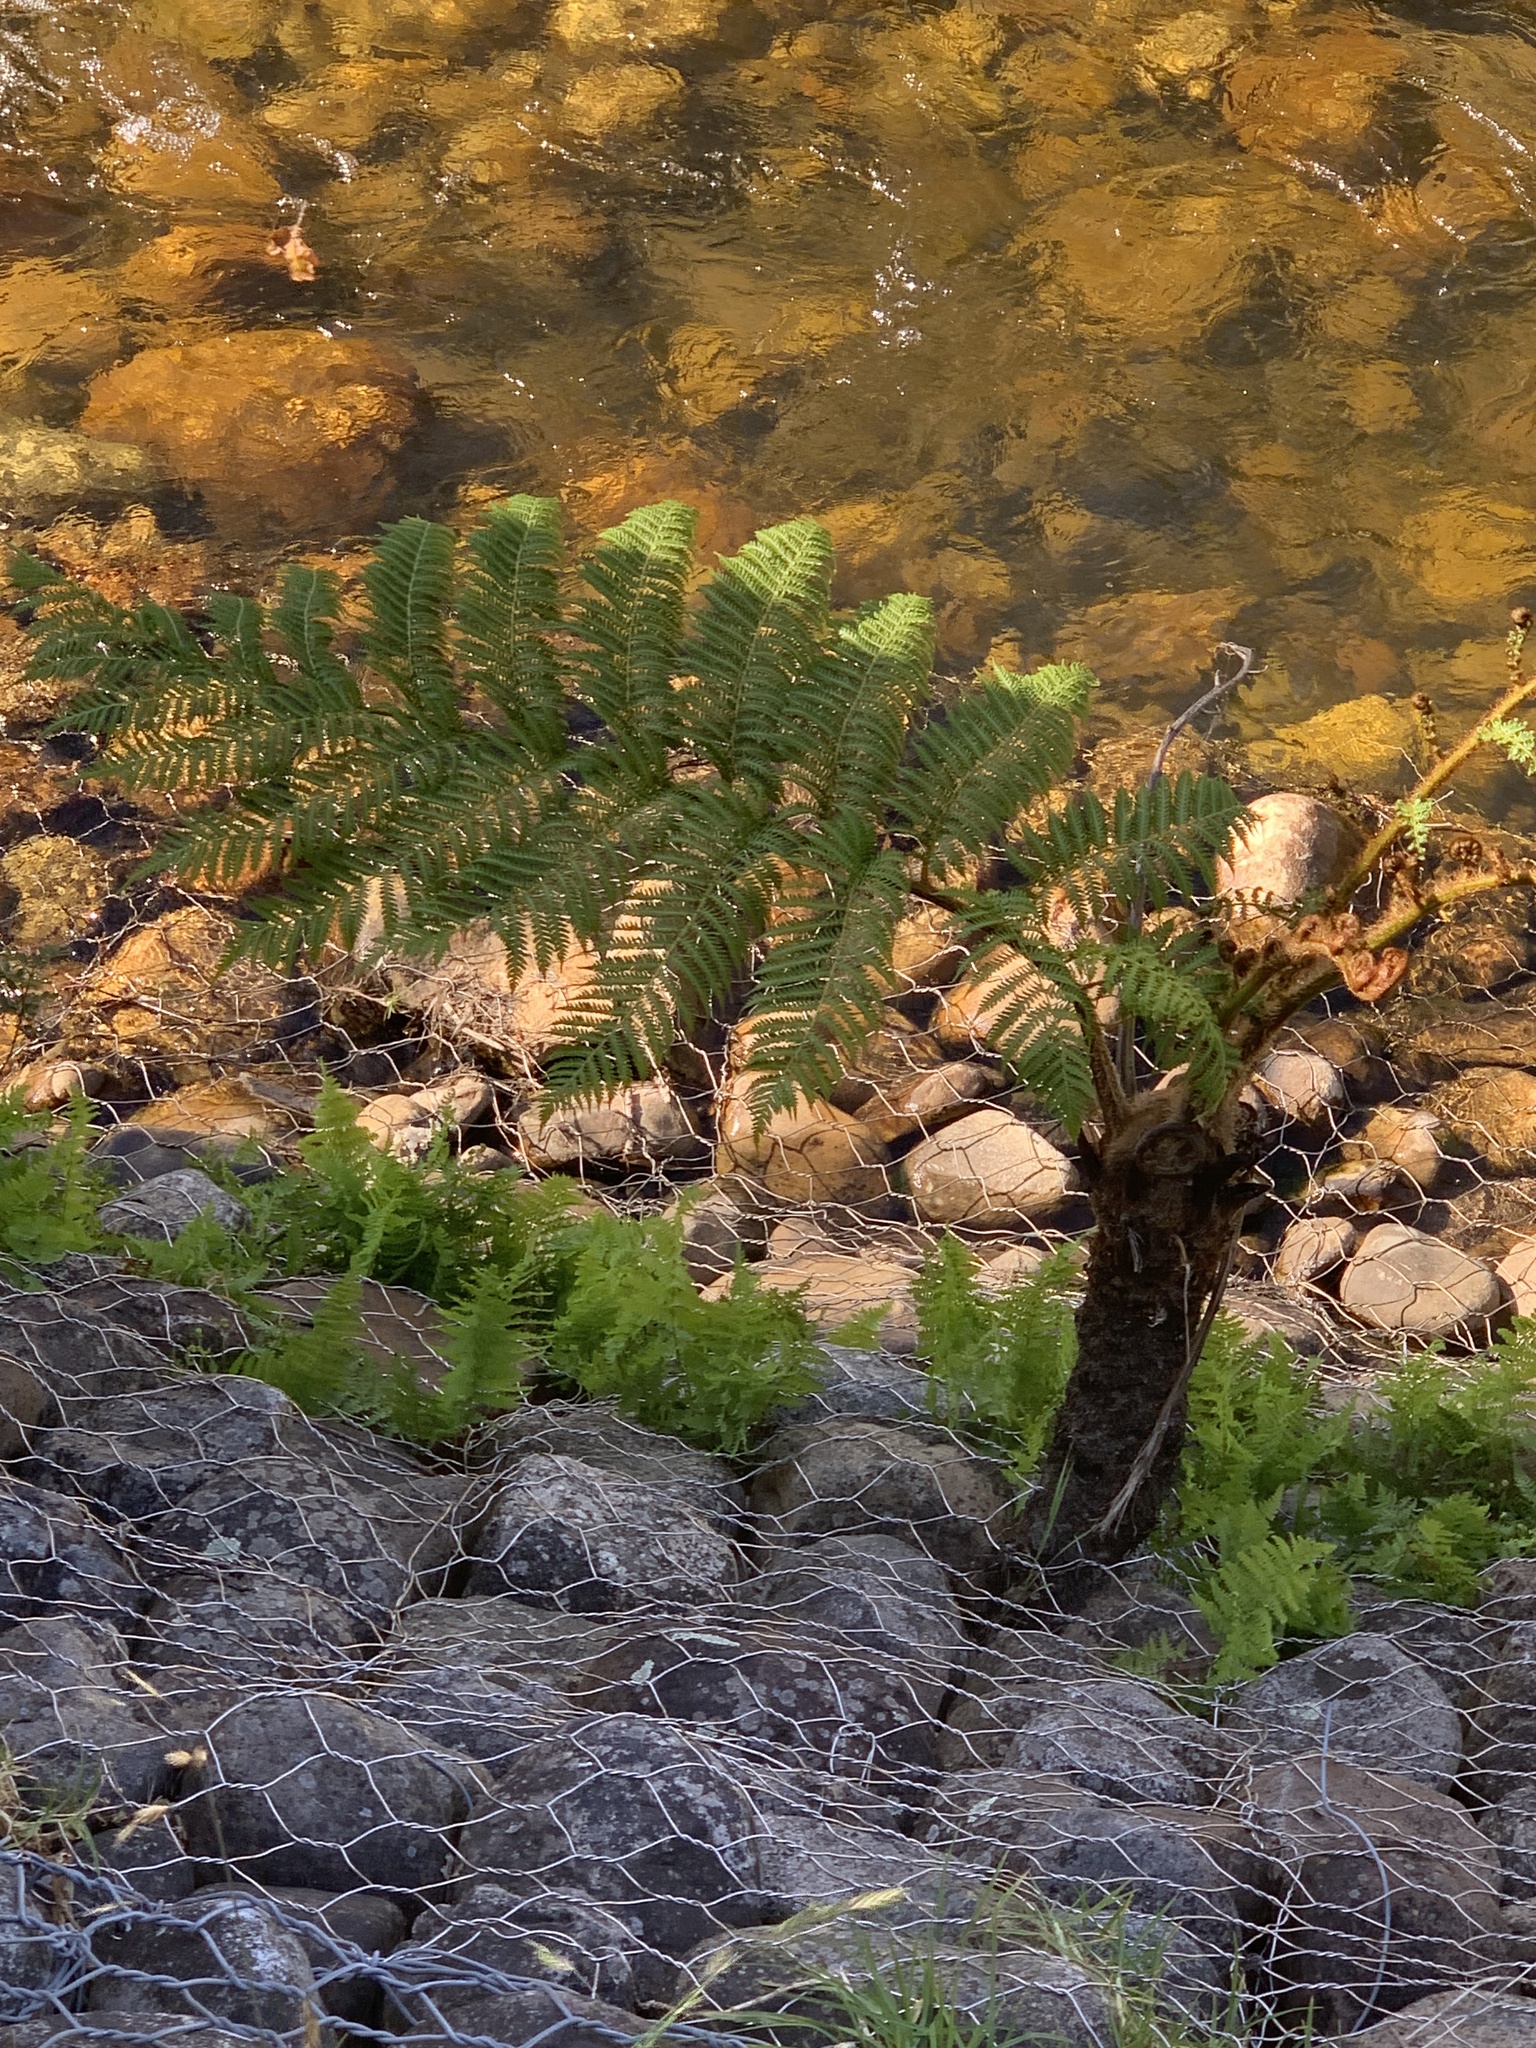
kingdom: Plantae
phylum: Tracheophyta
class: Polypodiopsida
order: Cyatheales
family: Cyatheaceae
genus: Sphaeropteris
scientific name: Sphaeropteris cooperi
